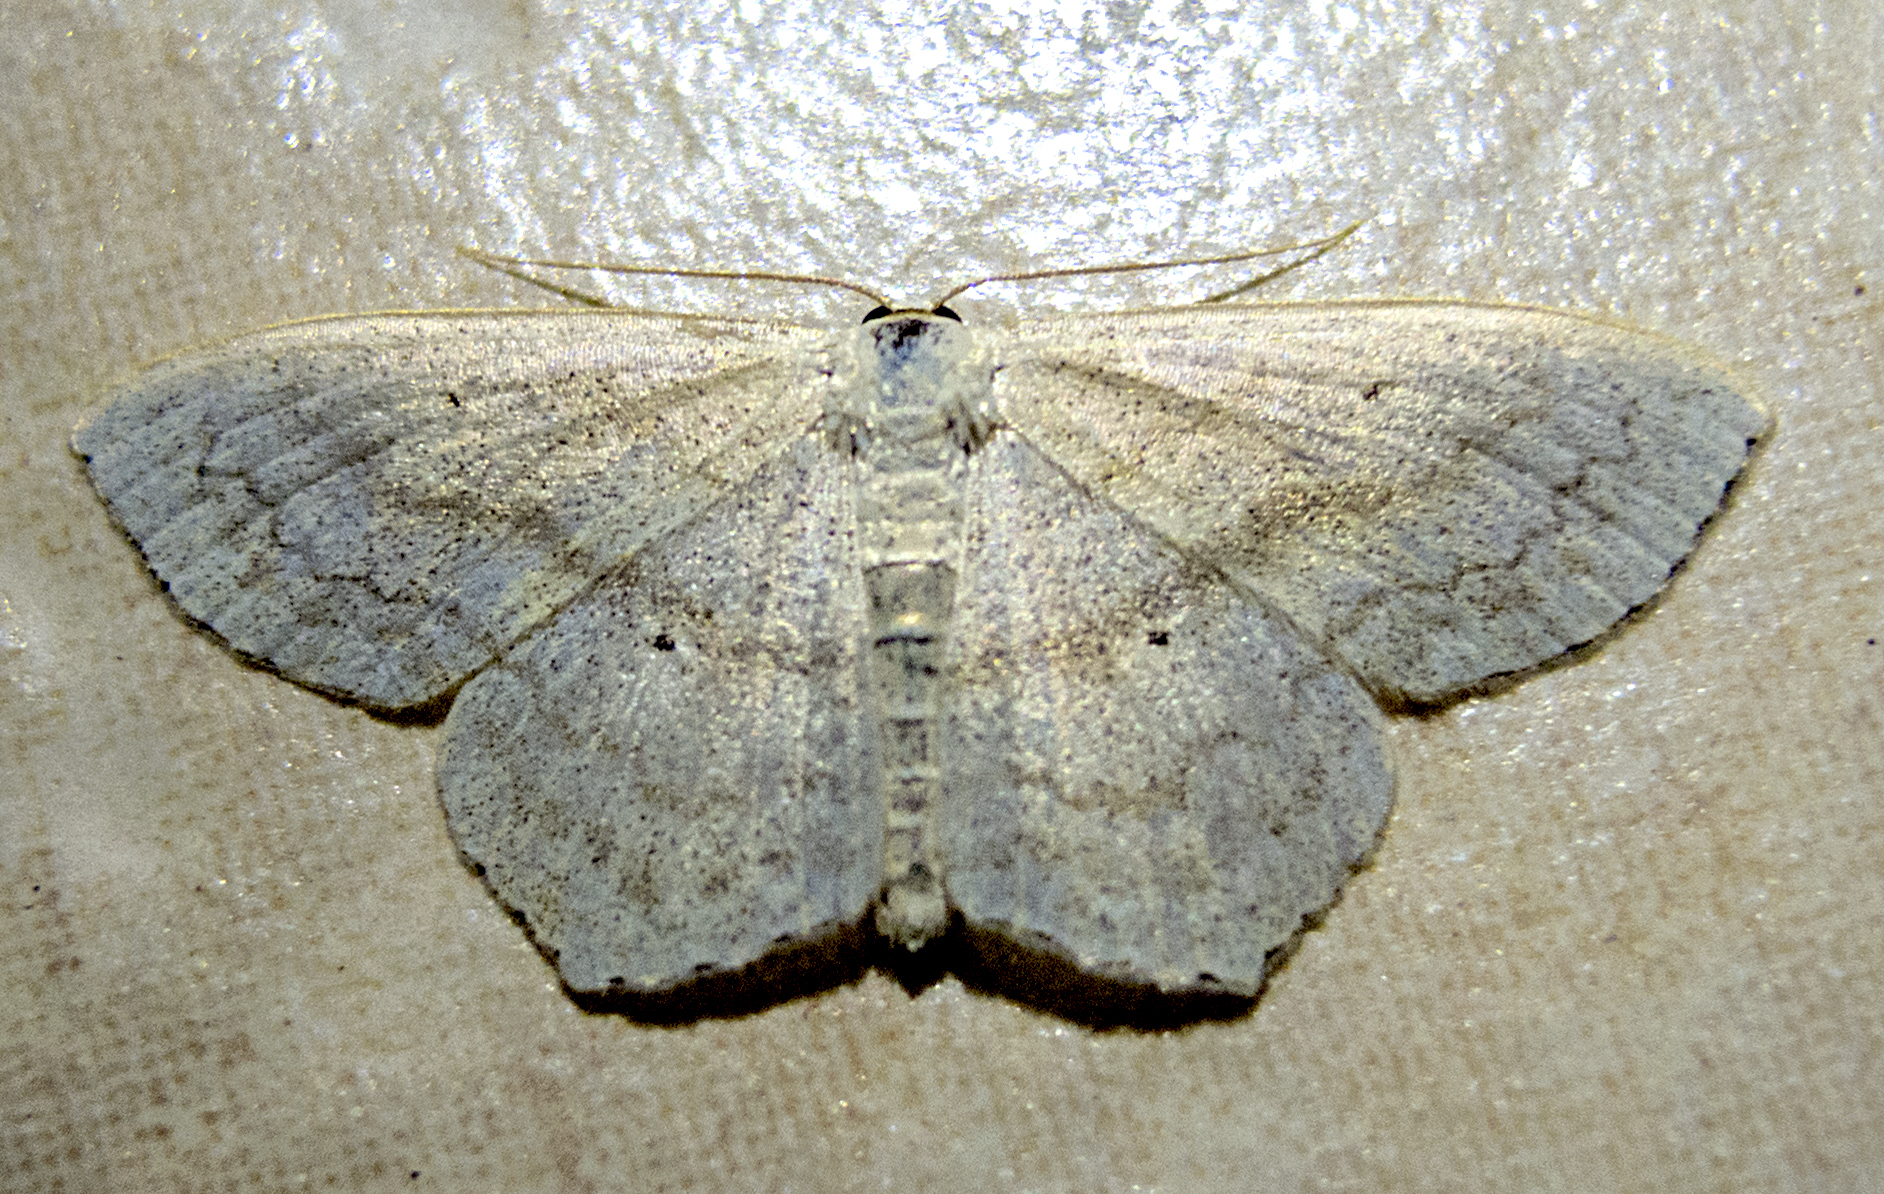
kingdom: Animalia
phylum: Arthropoda
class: Insecta
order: Lepidoptera
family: Geometridae
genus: Scopula
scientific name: Scopula nigropunctata
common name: Sub-angled wave
